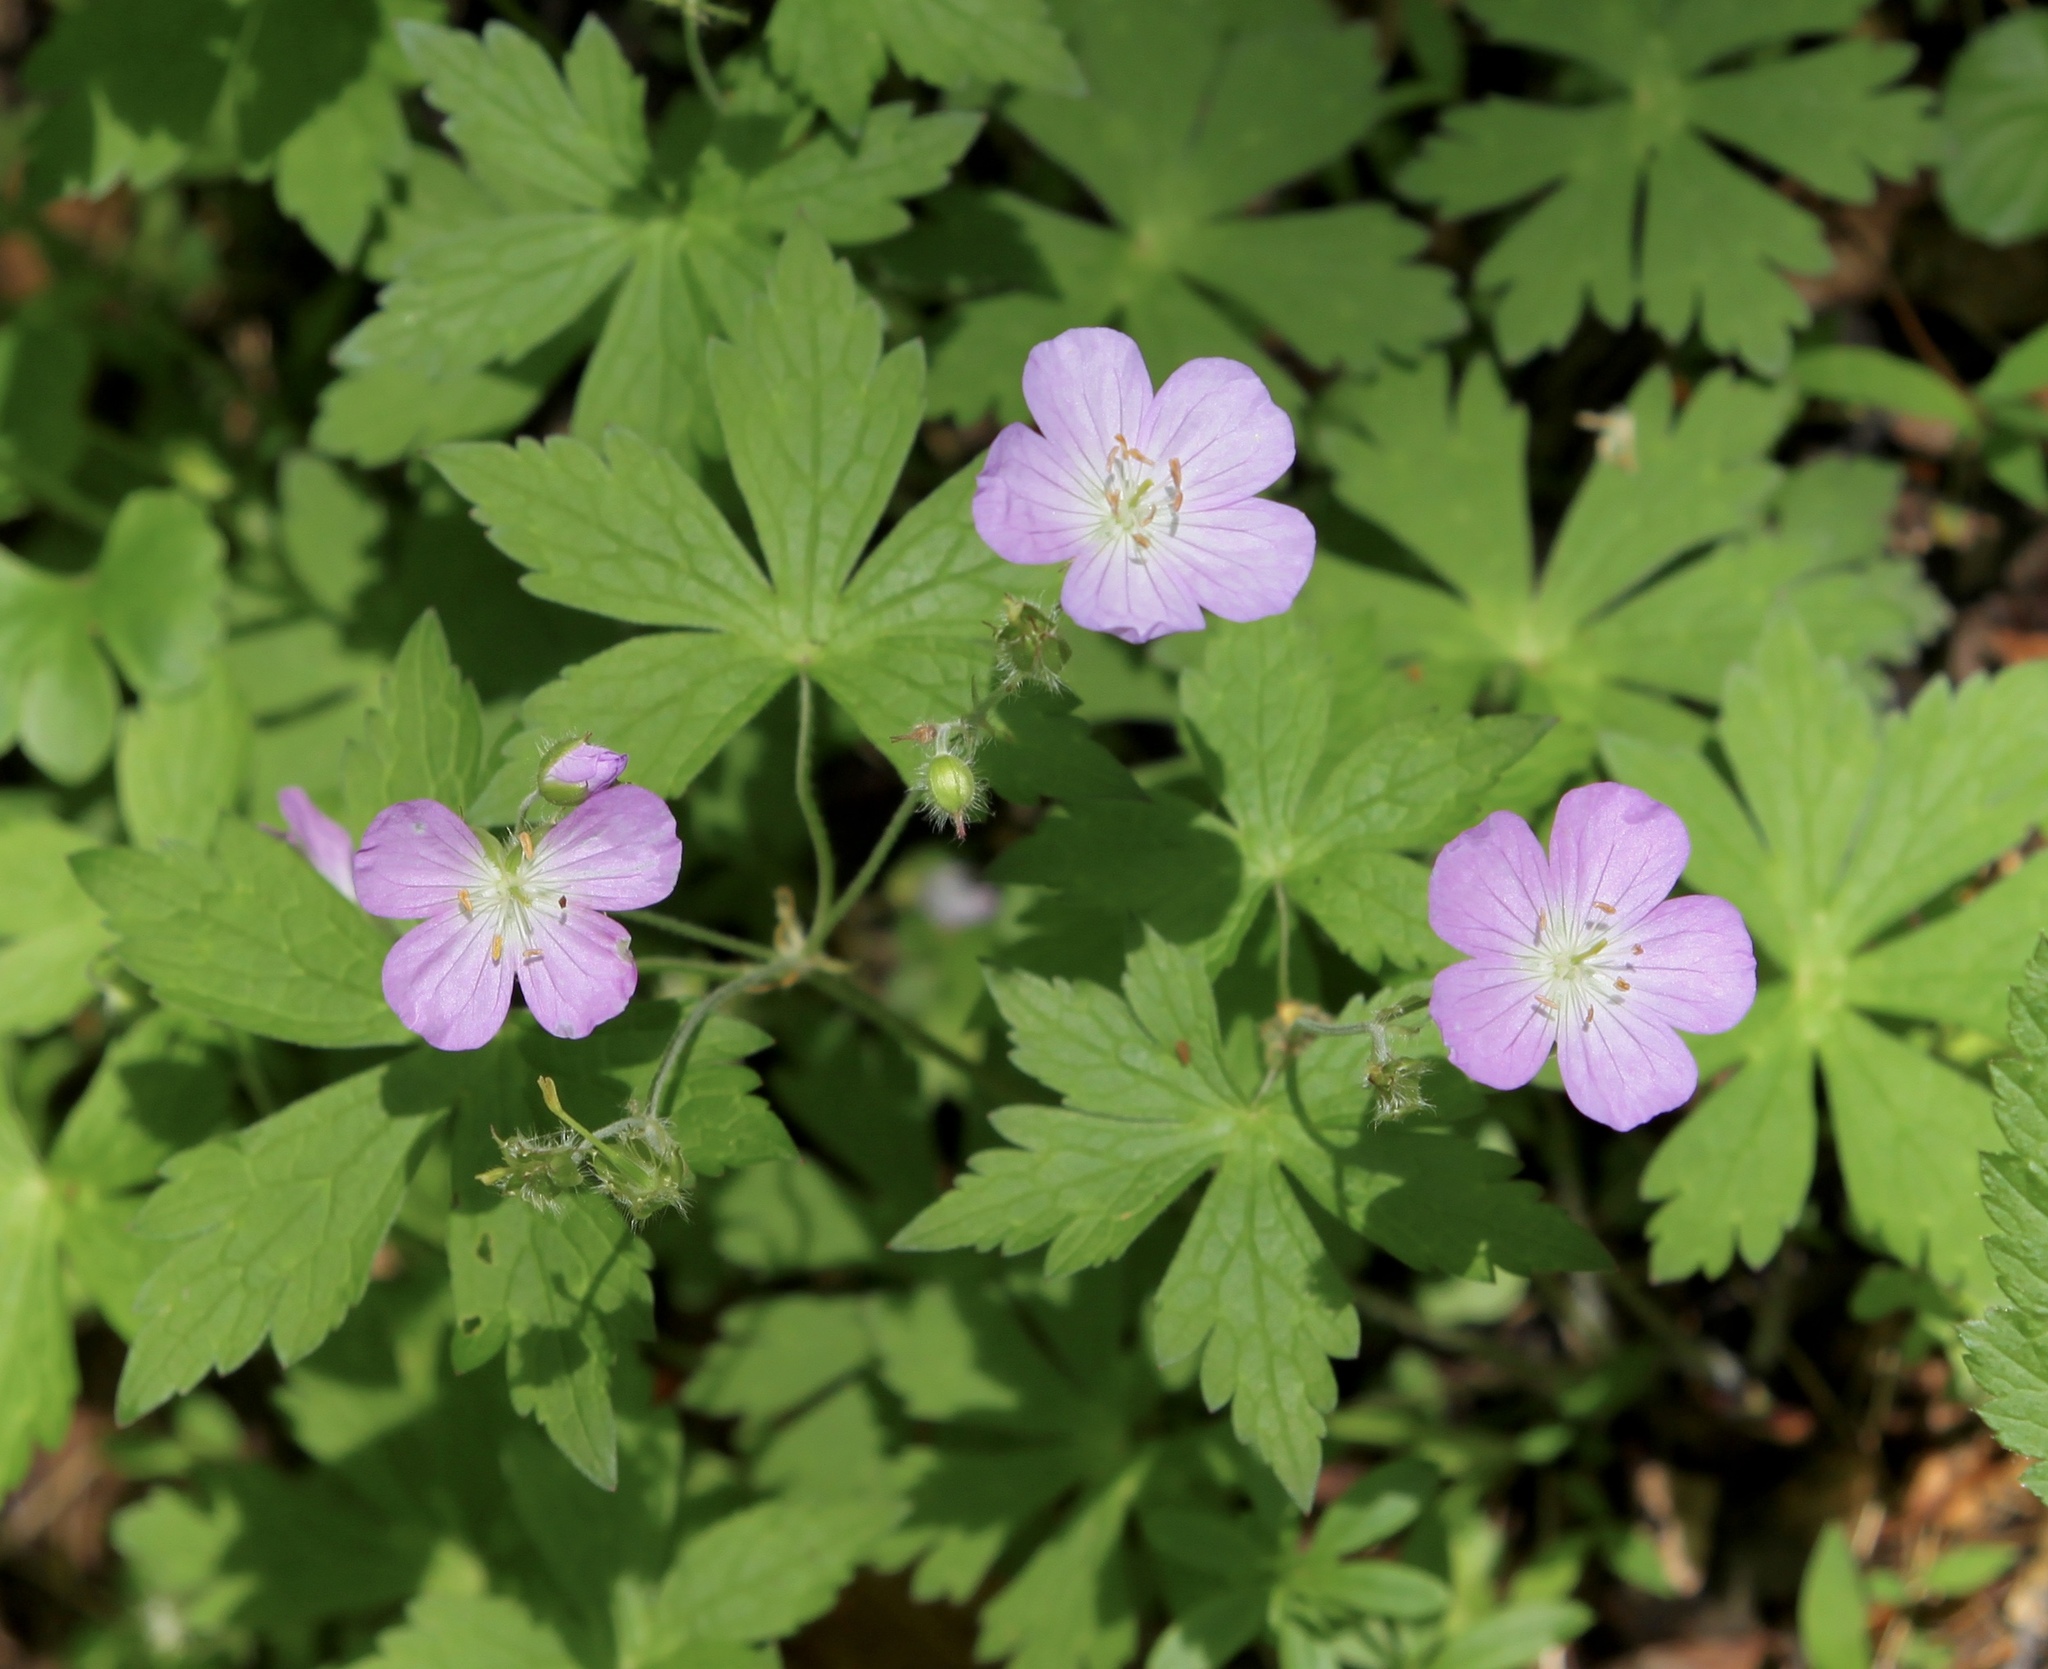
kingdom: Plantae
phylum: Tracheophyta
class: Magnoliopsida
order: Geraniales
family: Geraniaceae
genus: Geranium
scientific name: Geranium maculatum
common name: Spotted geranium
